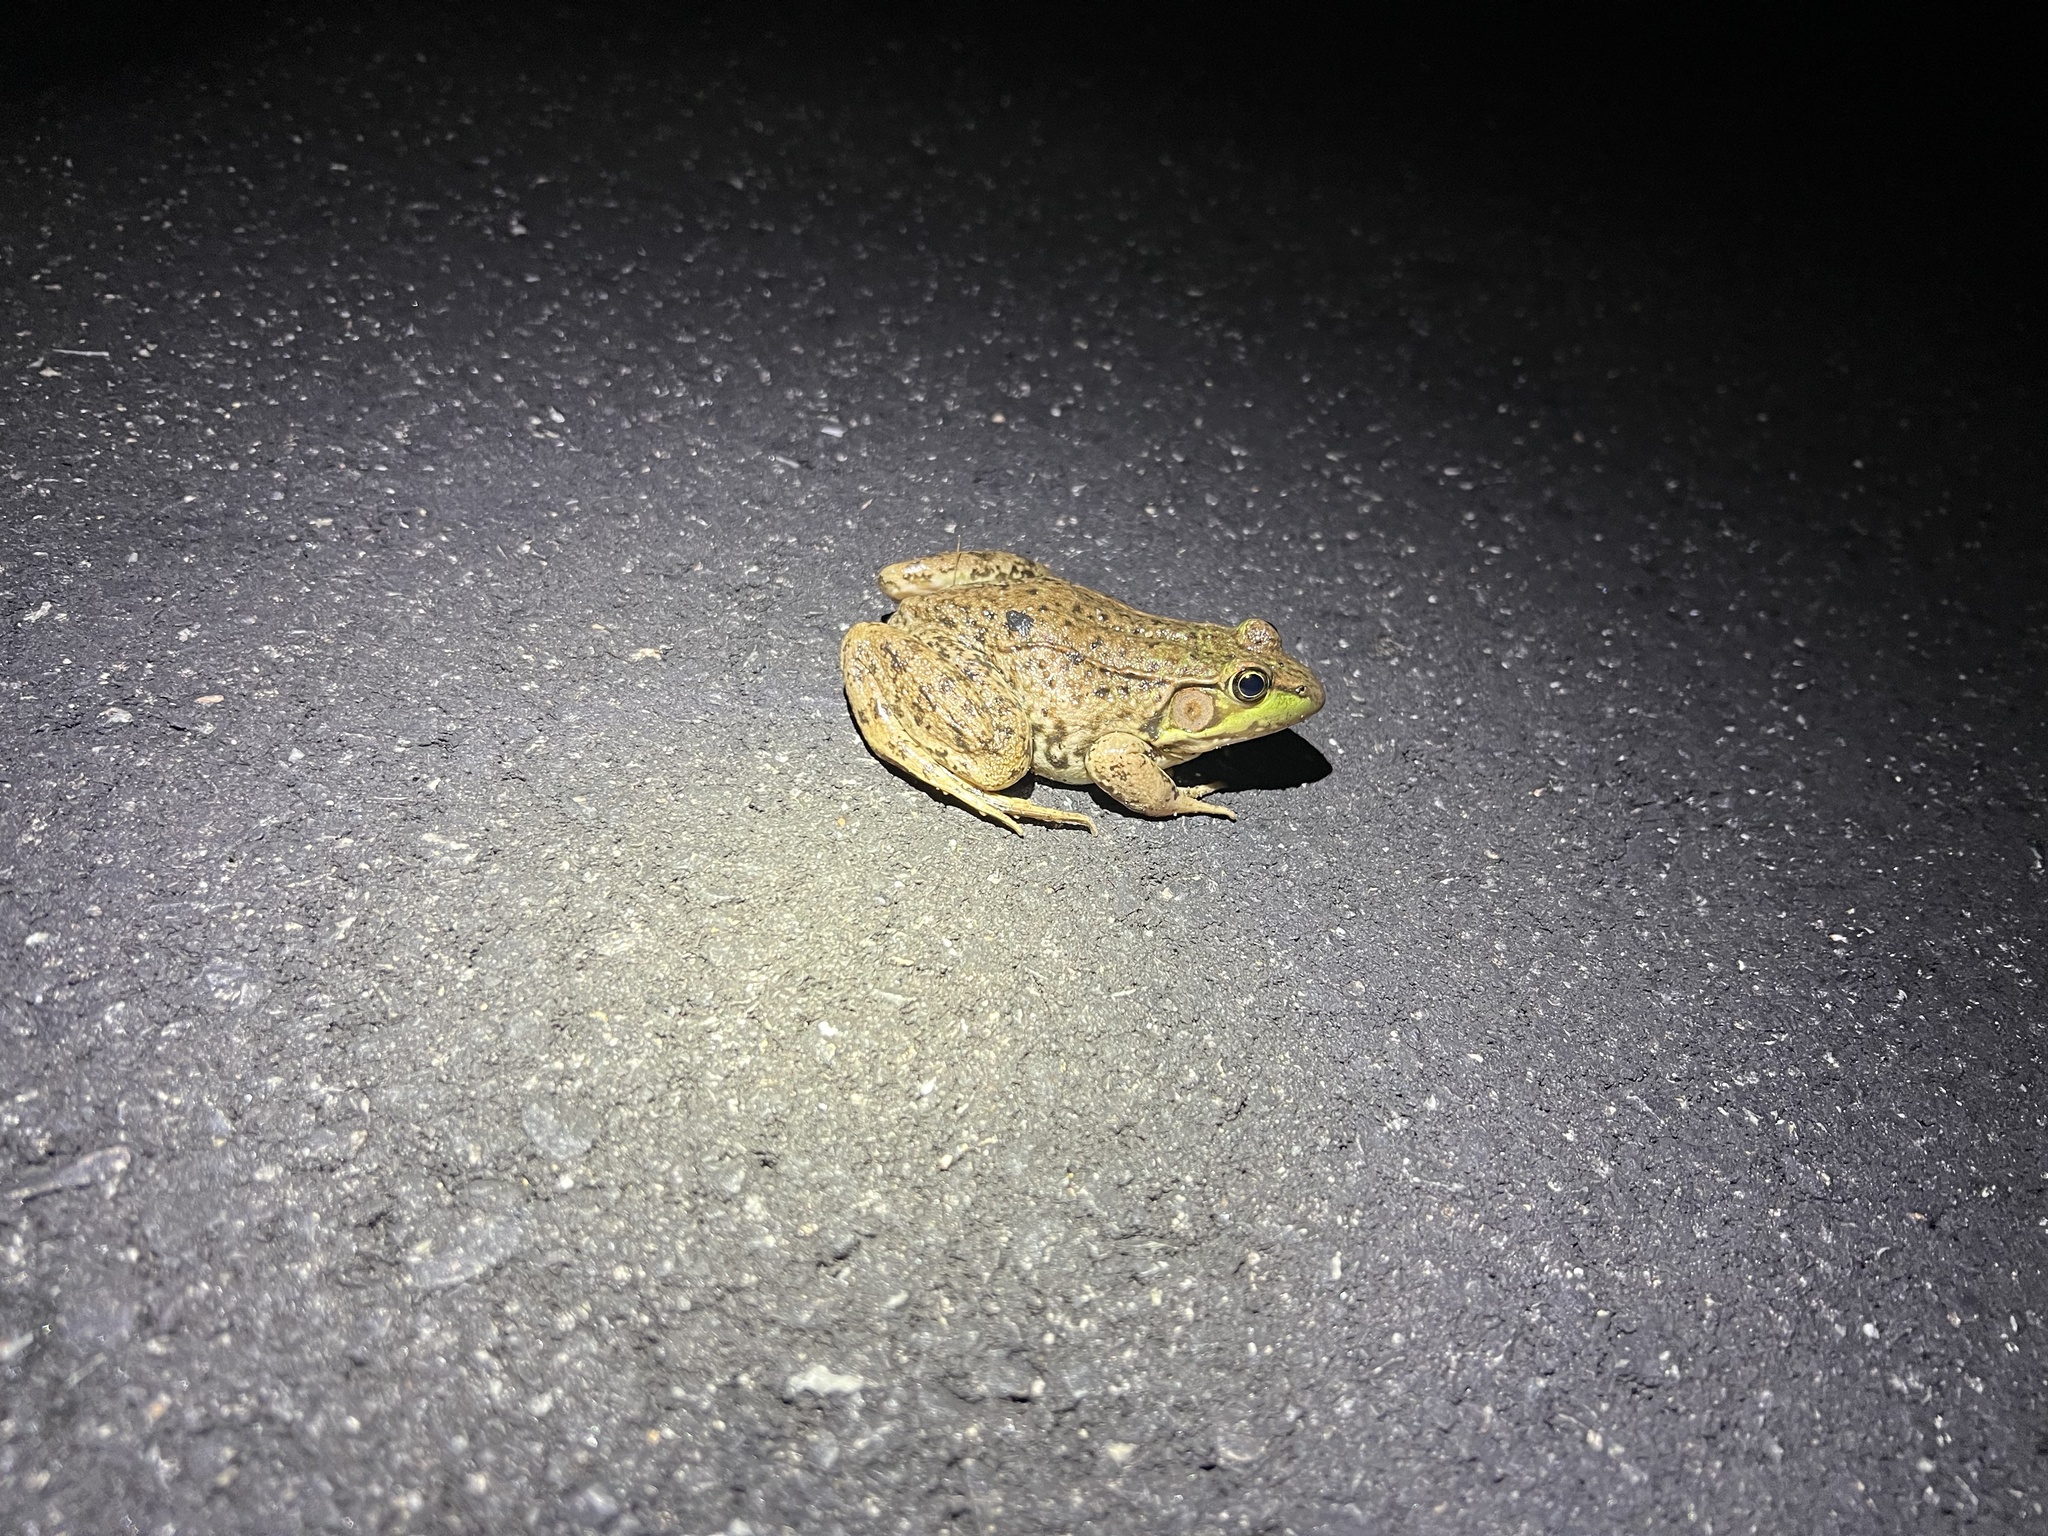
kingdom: Animalia
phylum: Chordata
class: Amphibia
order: Anura
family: Ranidae
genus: Lithobates
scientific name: Lithobates clamitans
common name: Green frog
